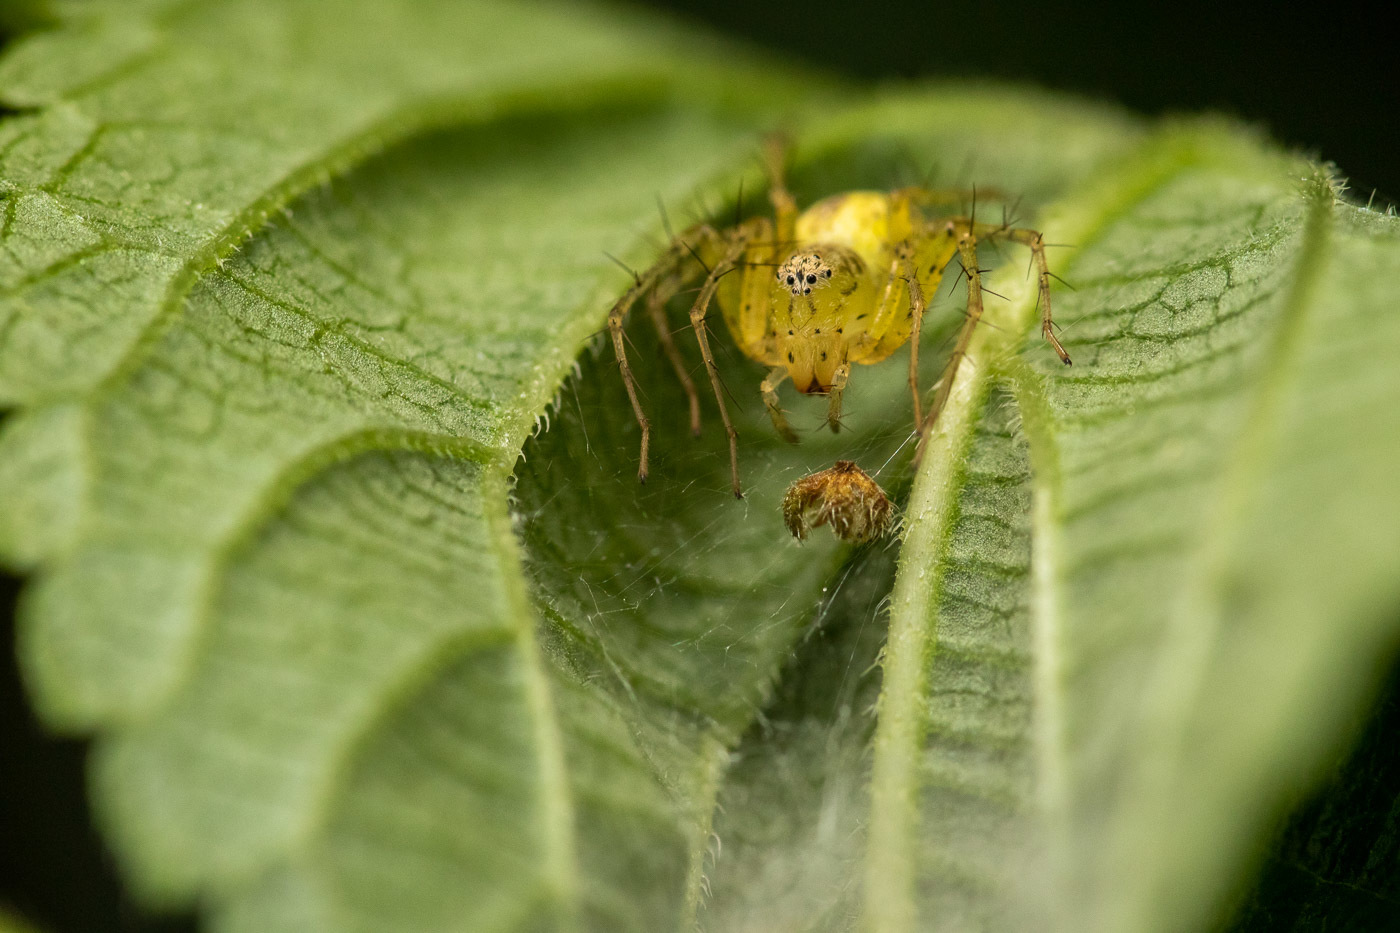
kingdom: Animalia
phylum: Arthropoda
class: Arachnida
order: Araneae
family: Oxyopidae
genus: Oxyopes
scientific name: Oxyopes punctatus
